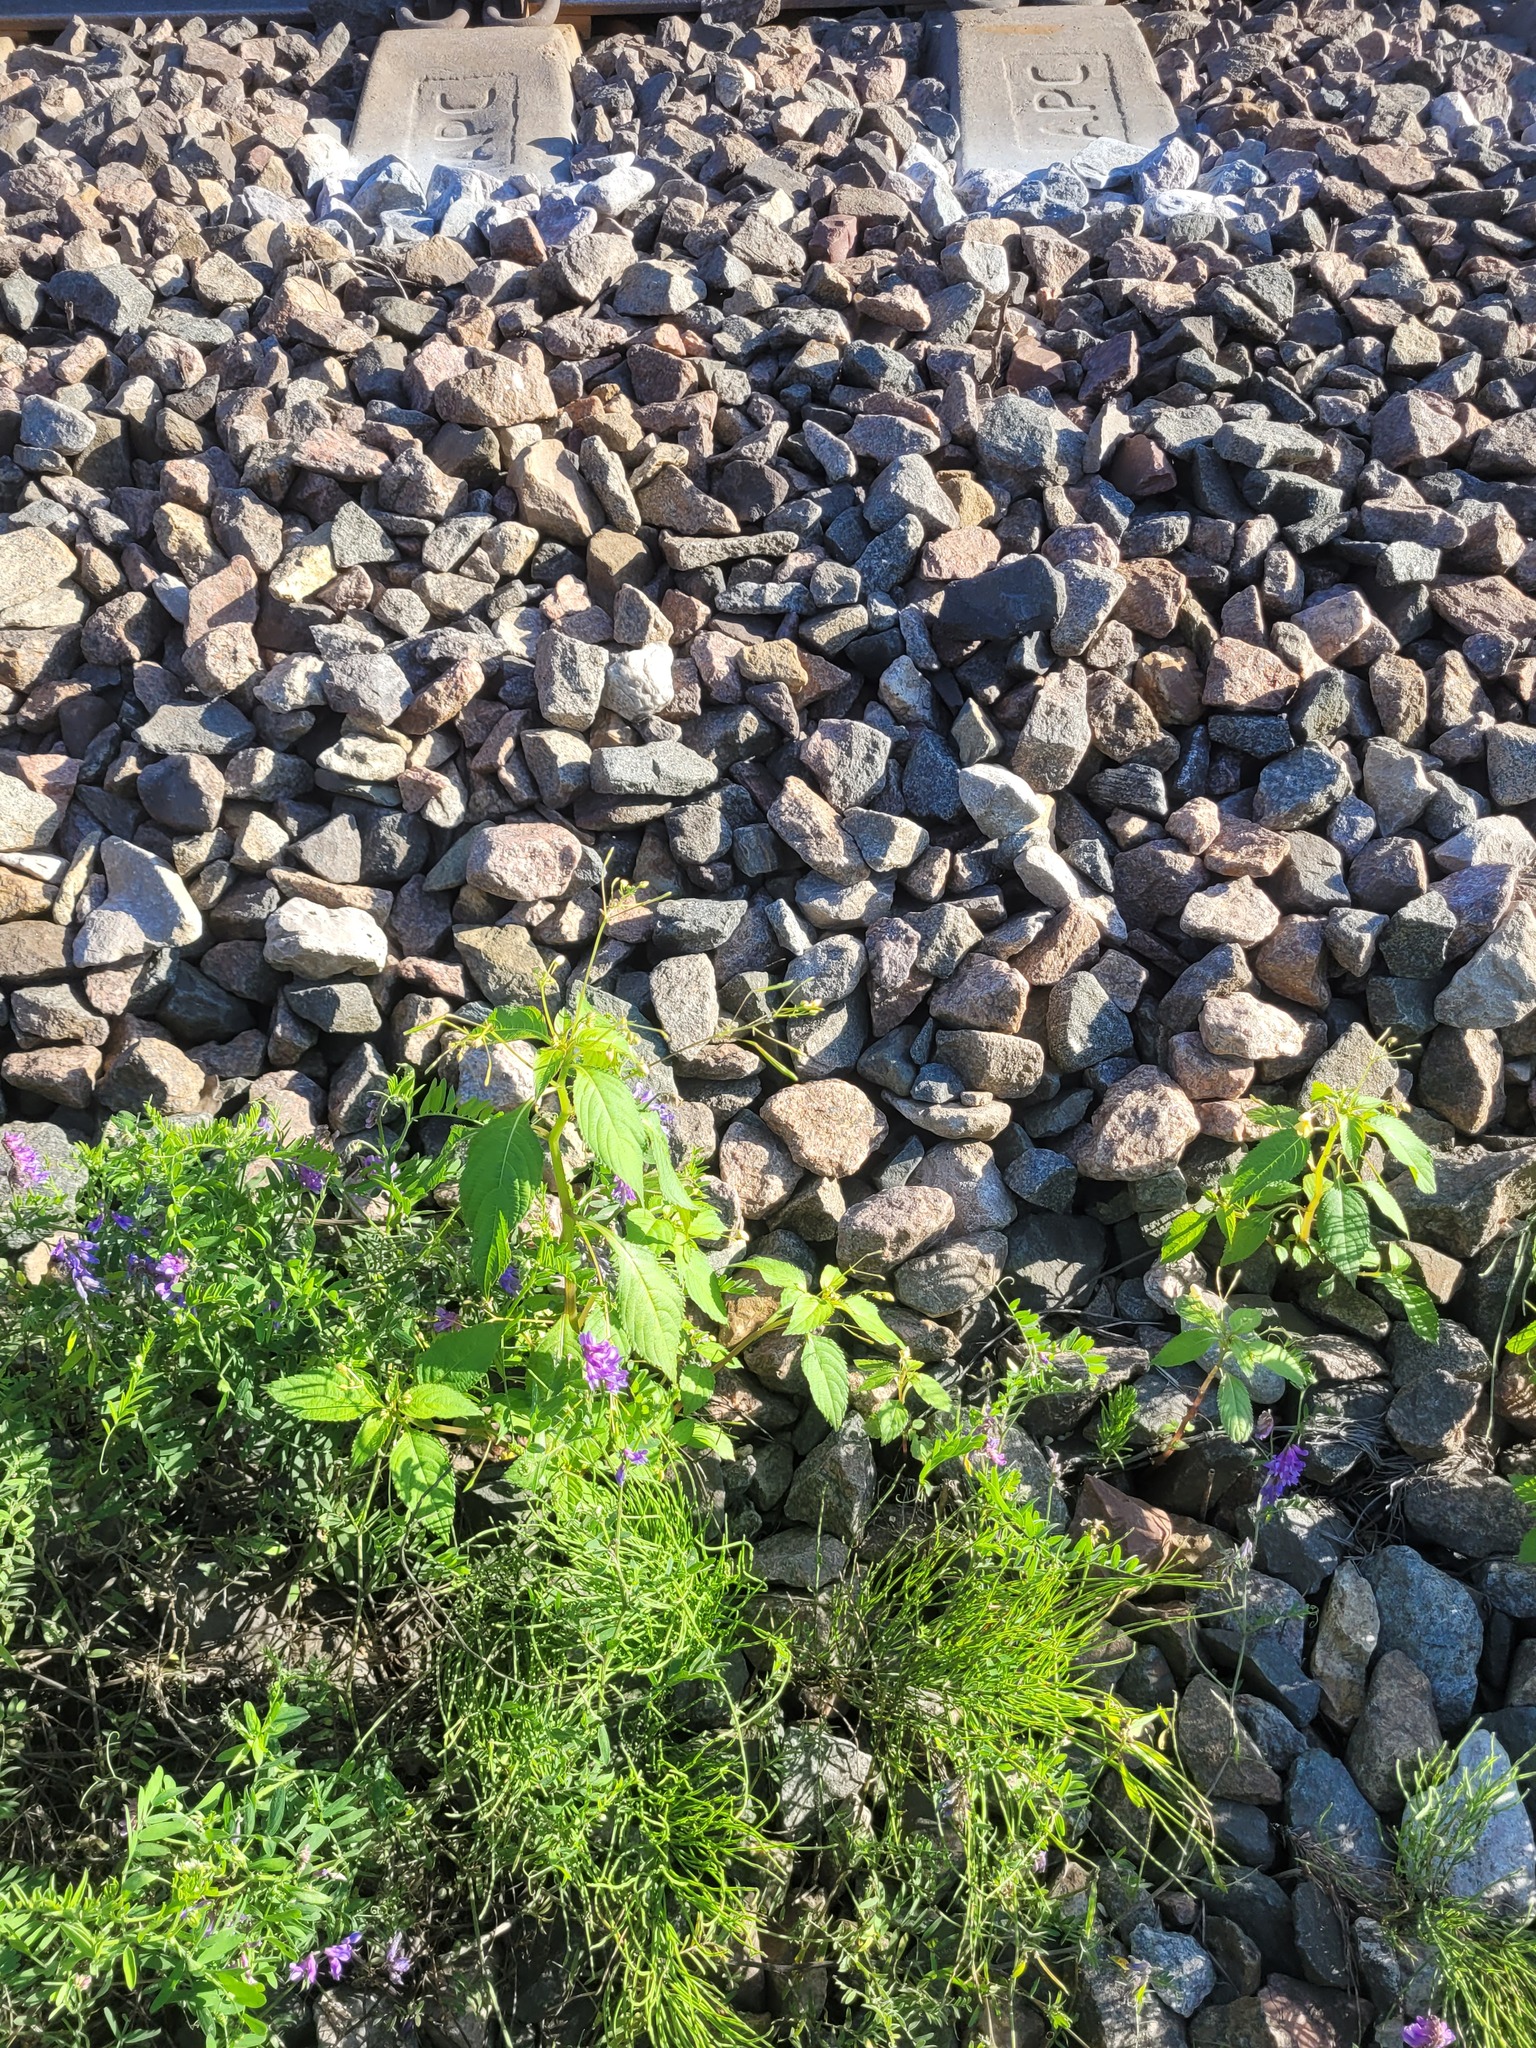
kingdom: Plantae
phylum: Tracheophyta
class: Magnoliopsida
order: Ericales
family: Balsaminaceae
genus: Impatiens
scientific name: Impatiens parviflora
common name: Small balsam
